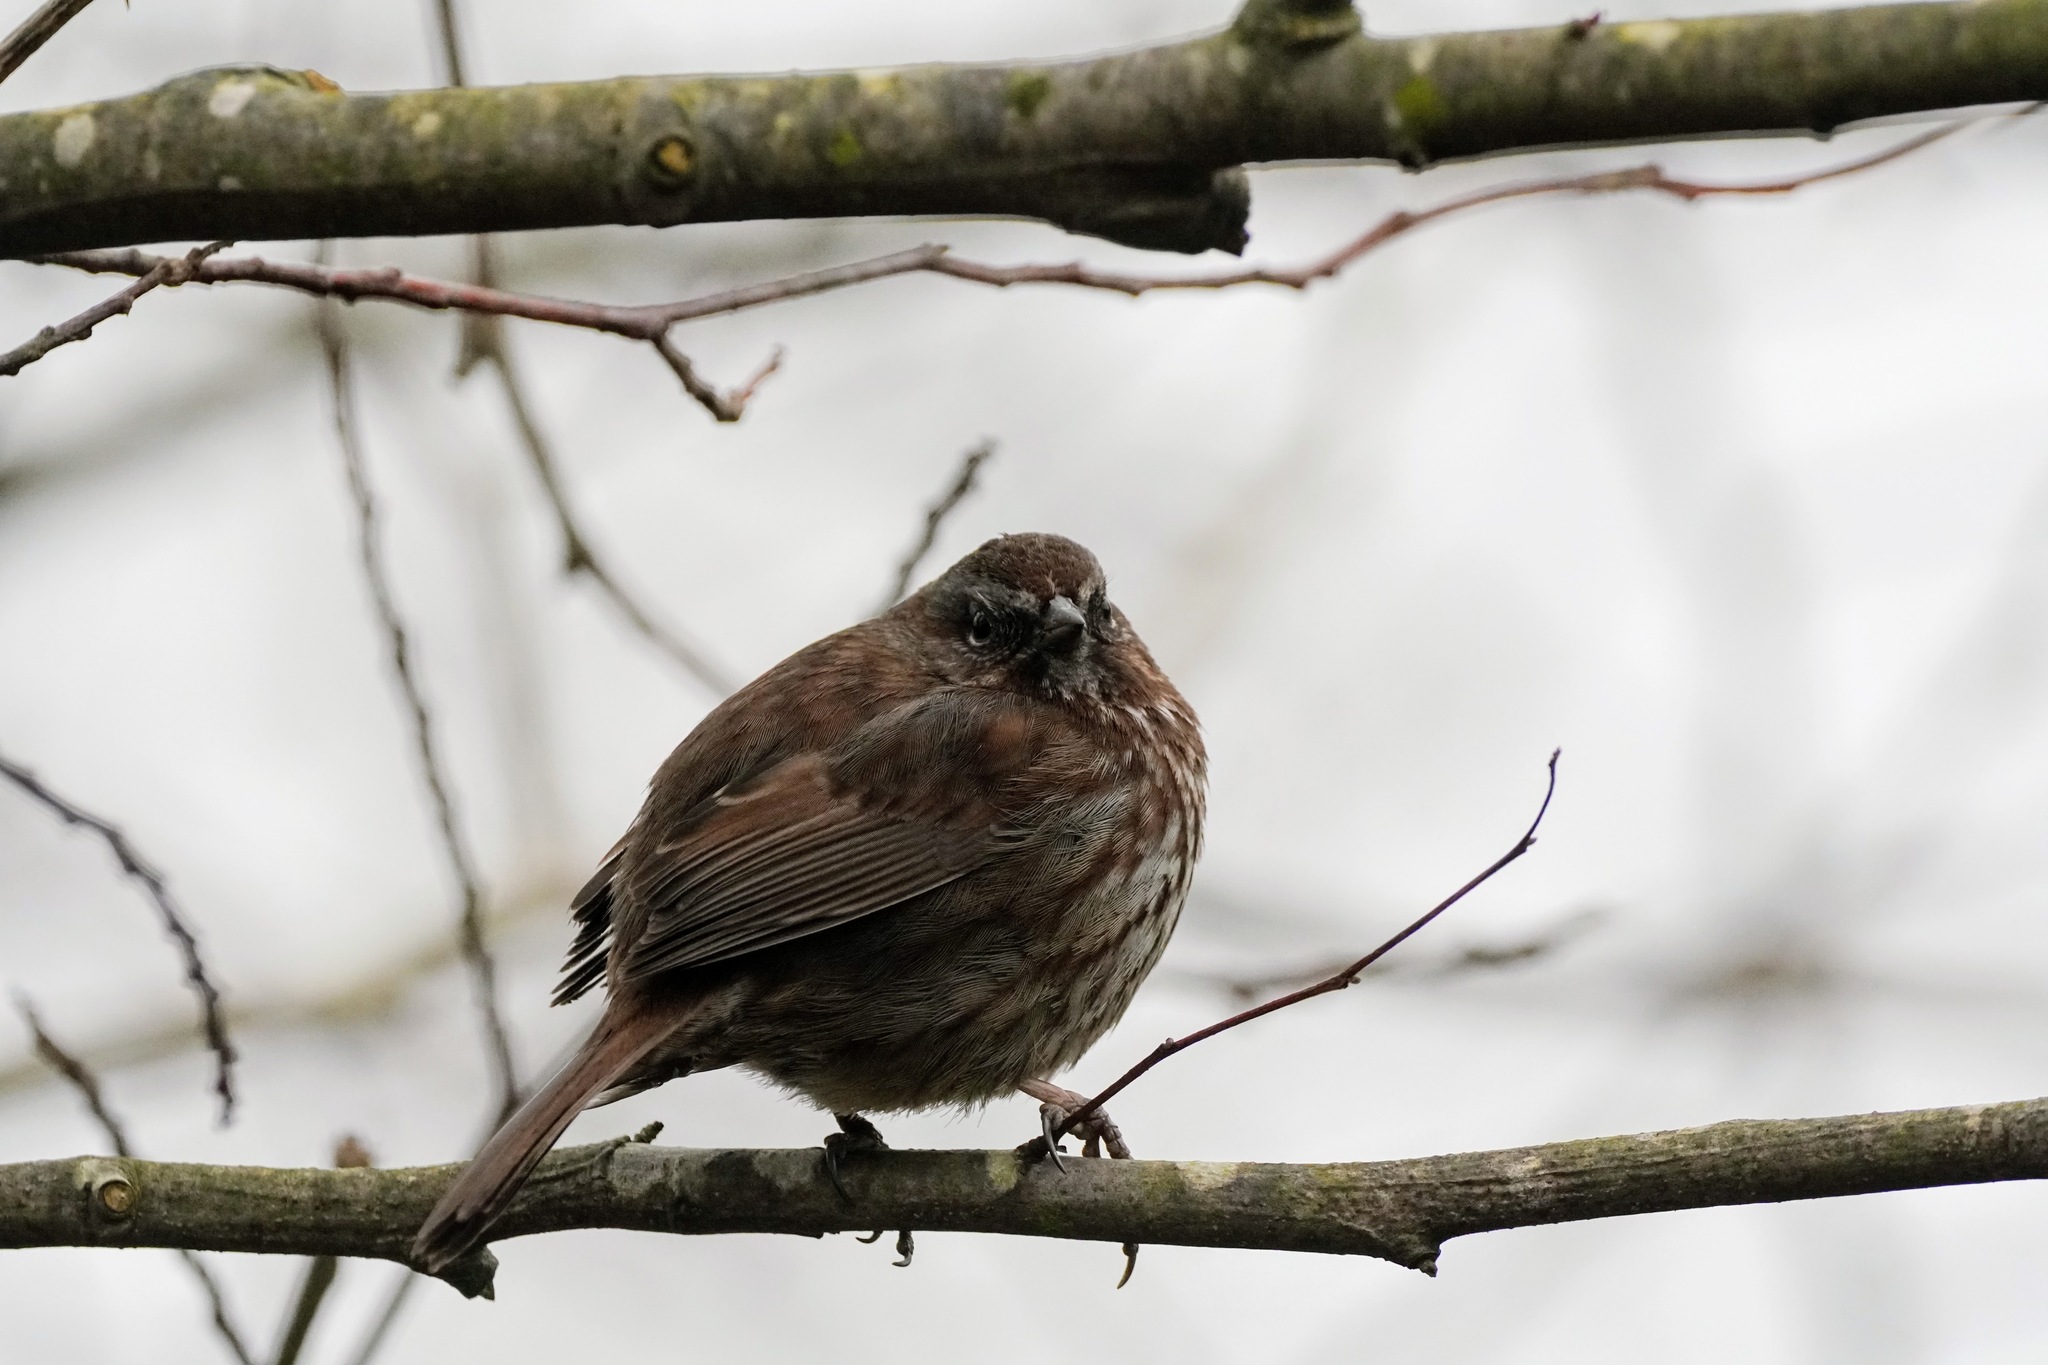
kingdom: Animalia
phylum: Chordata
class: Aves
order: Passeriformes
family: Passerellidae
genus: Melospiza
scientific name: Melospiza melodia
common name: Song sparrow
